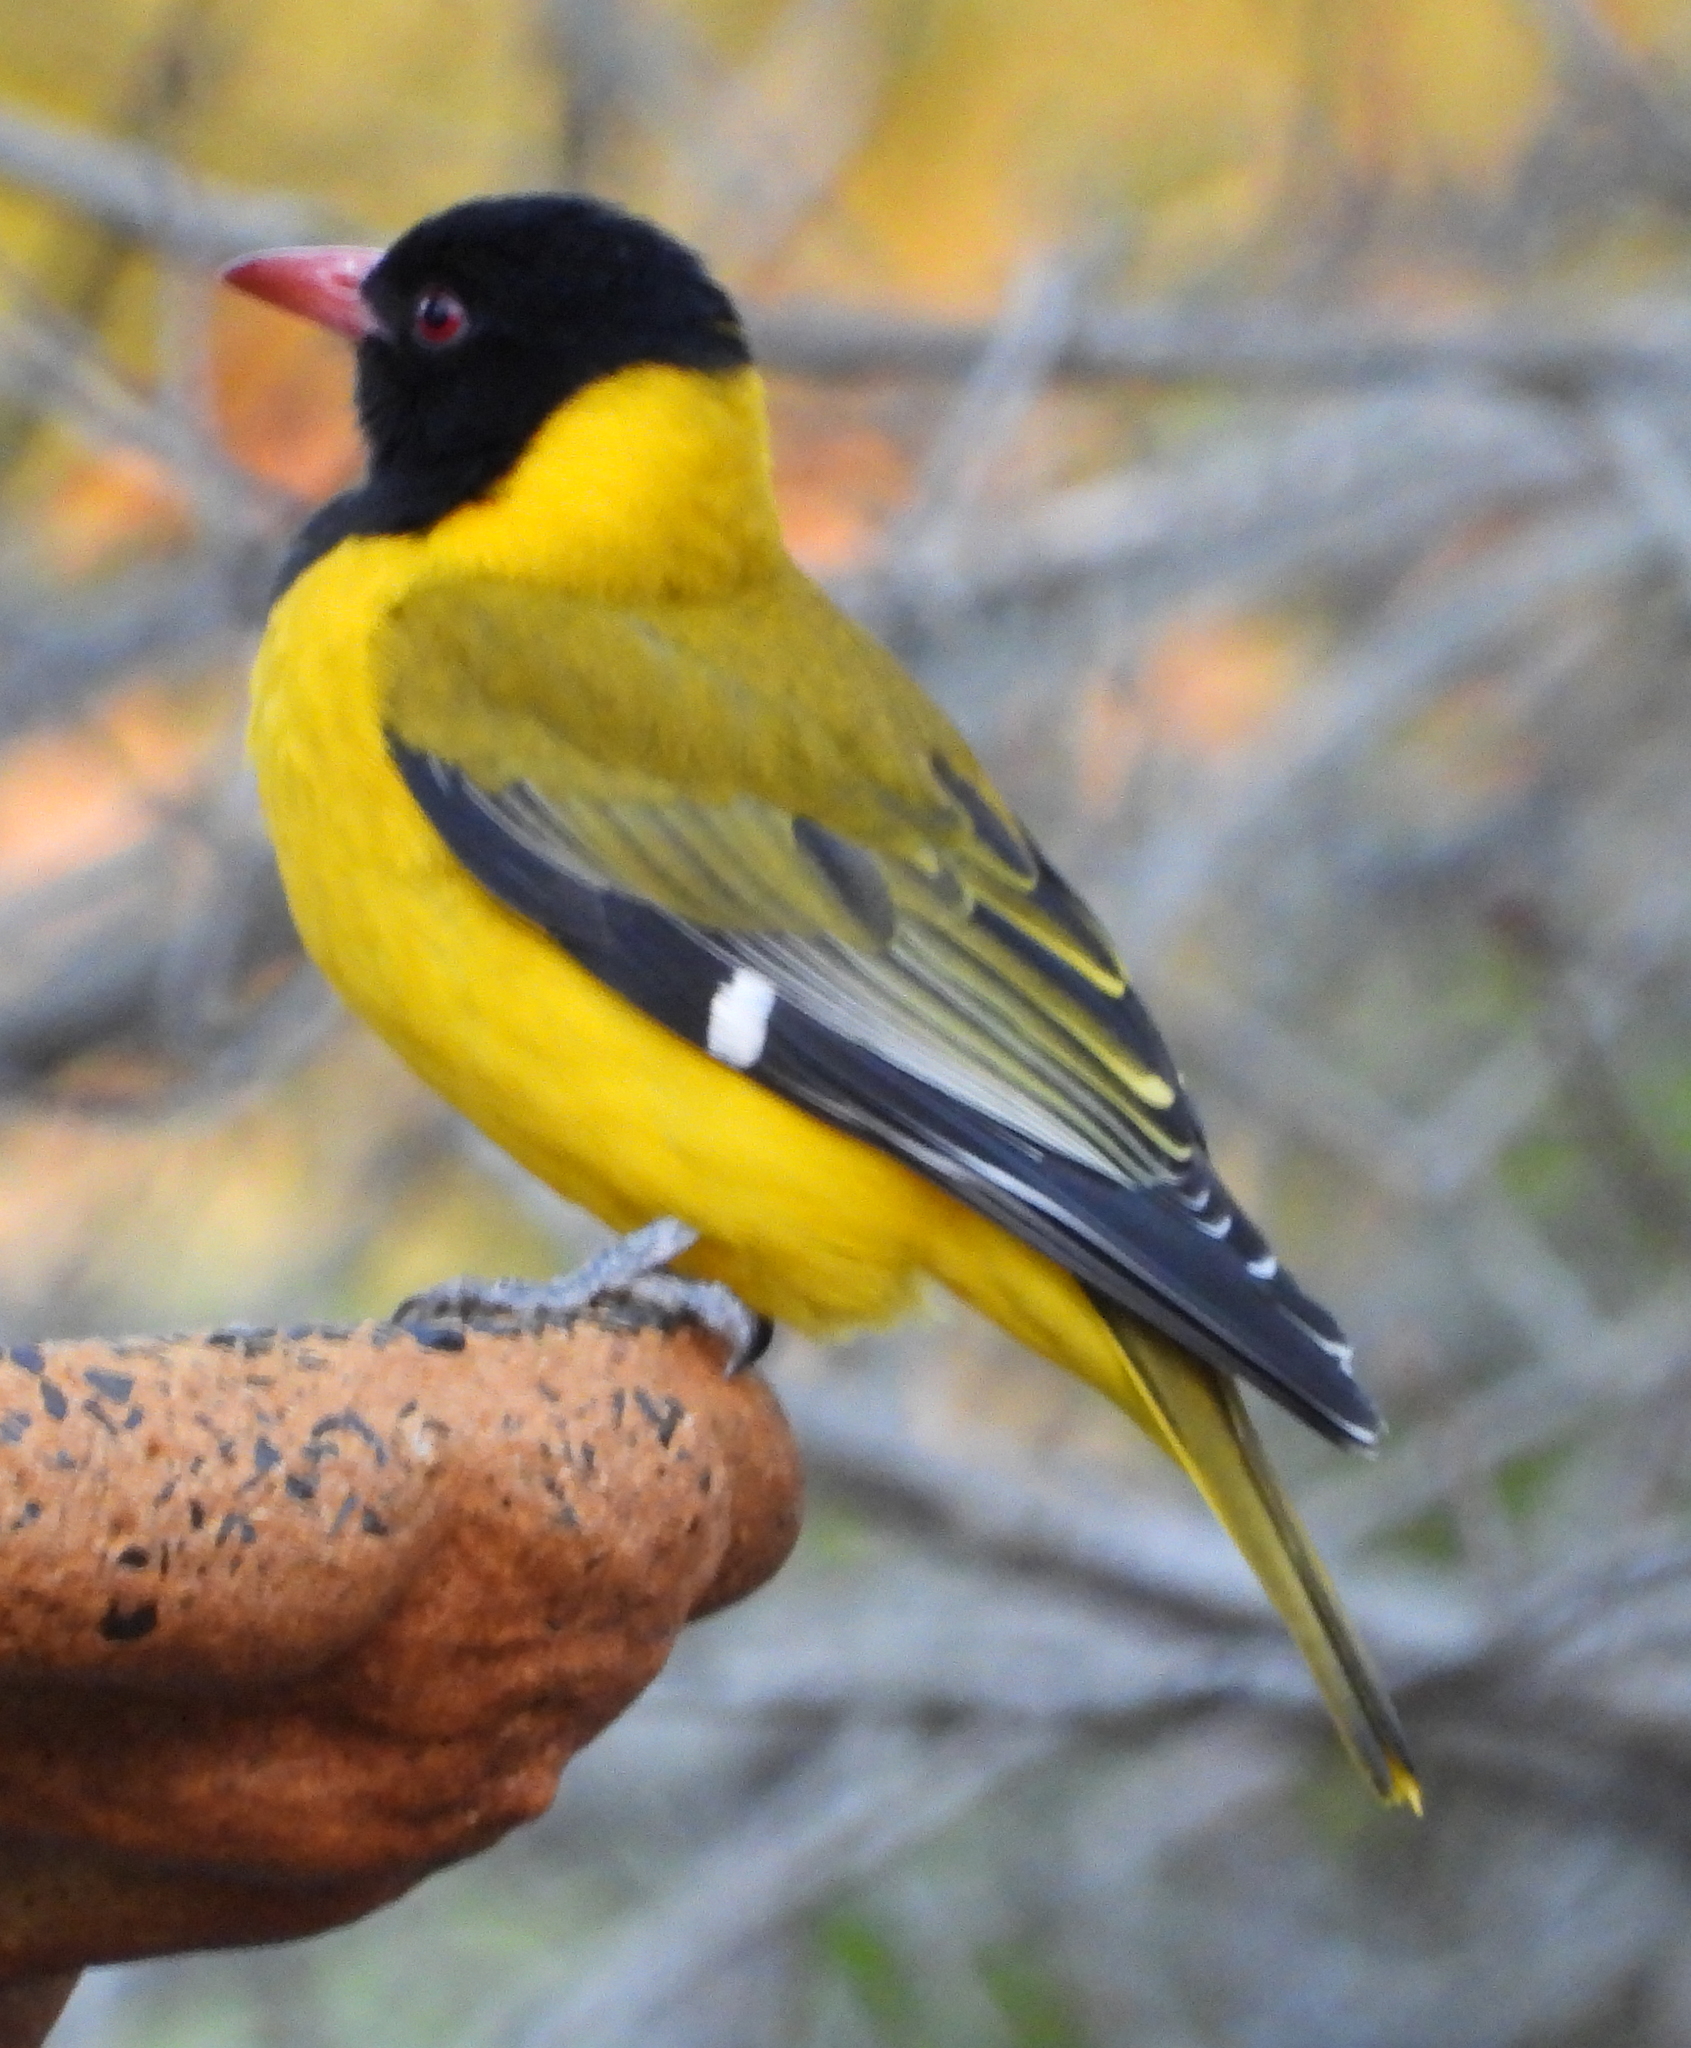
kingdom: Animalia
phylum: Chordata
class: Aves
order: Passeriformes
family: Oriolidae
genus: Oriolus
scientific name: Oriolus larvatus
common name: Black-headed oriole
